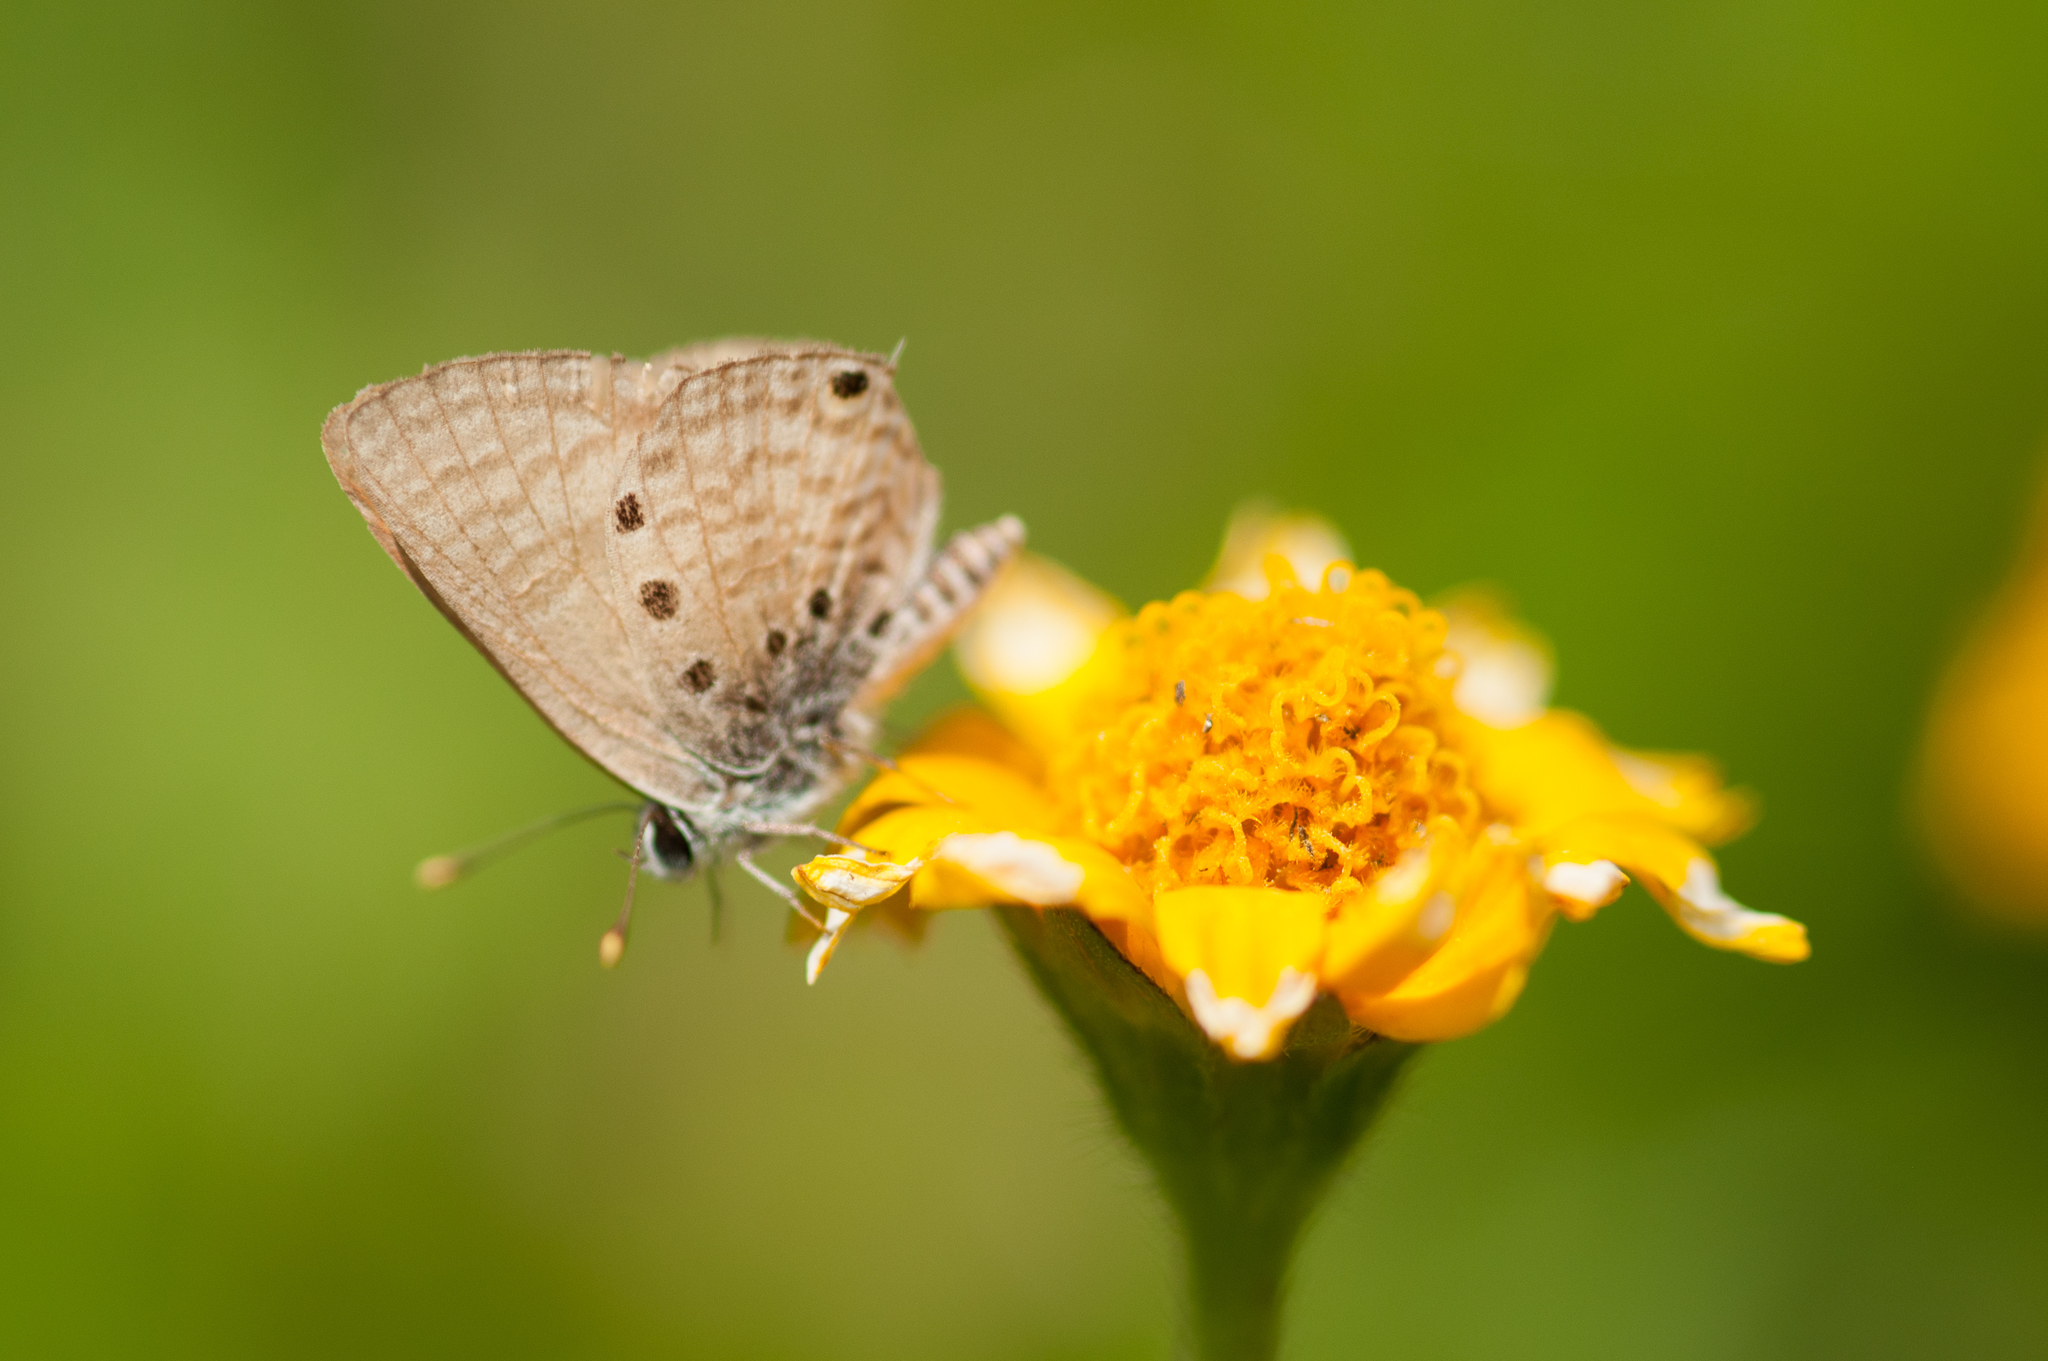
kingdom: Animalia
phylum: Arthropoda
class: Insecta
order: Lepidoptera
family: Lycaenidae
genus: Anthene
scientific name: Anthene amarah
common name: Black-striped hairtail
